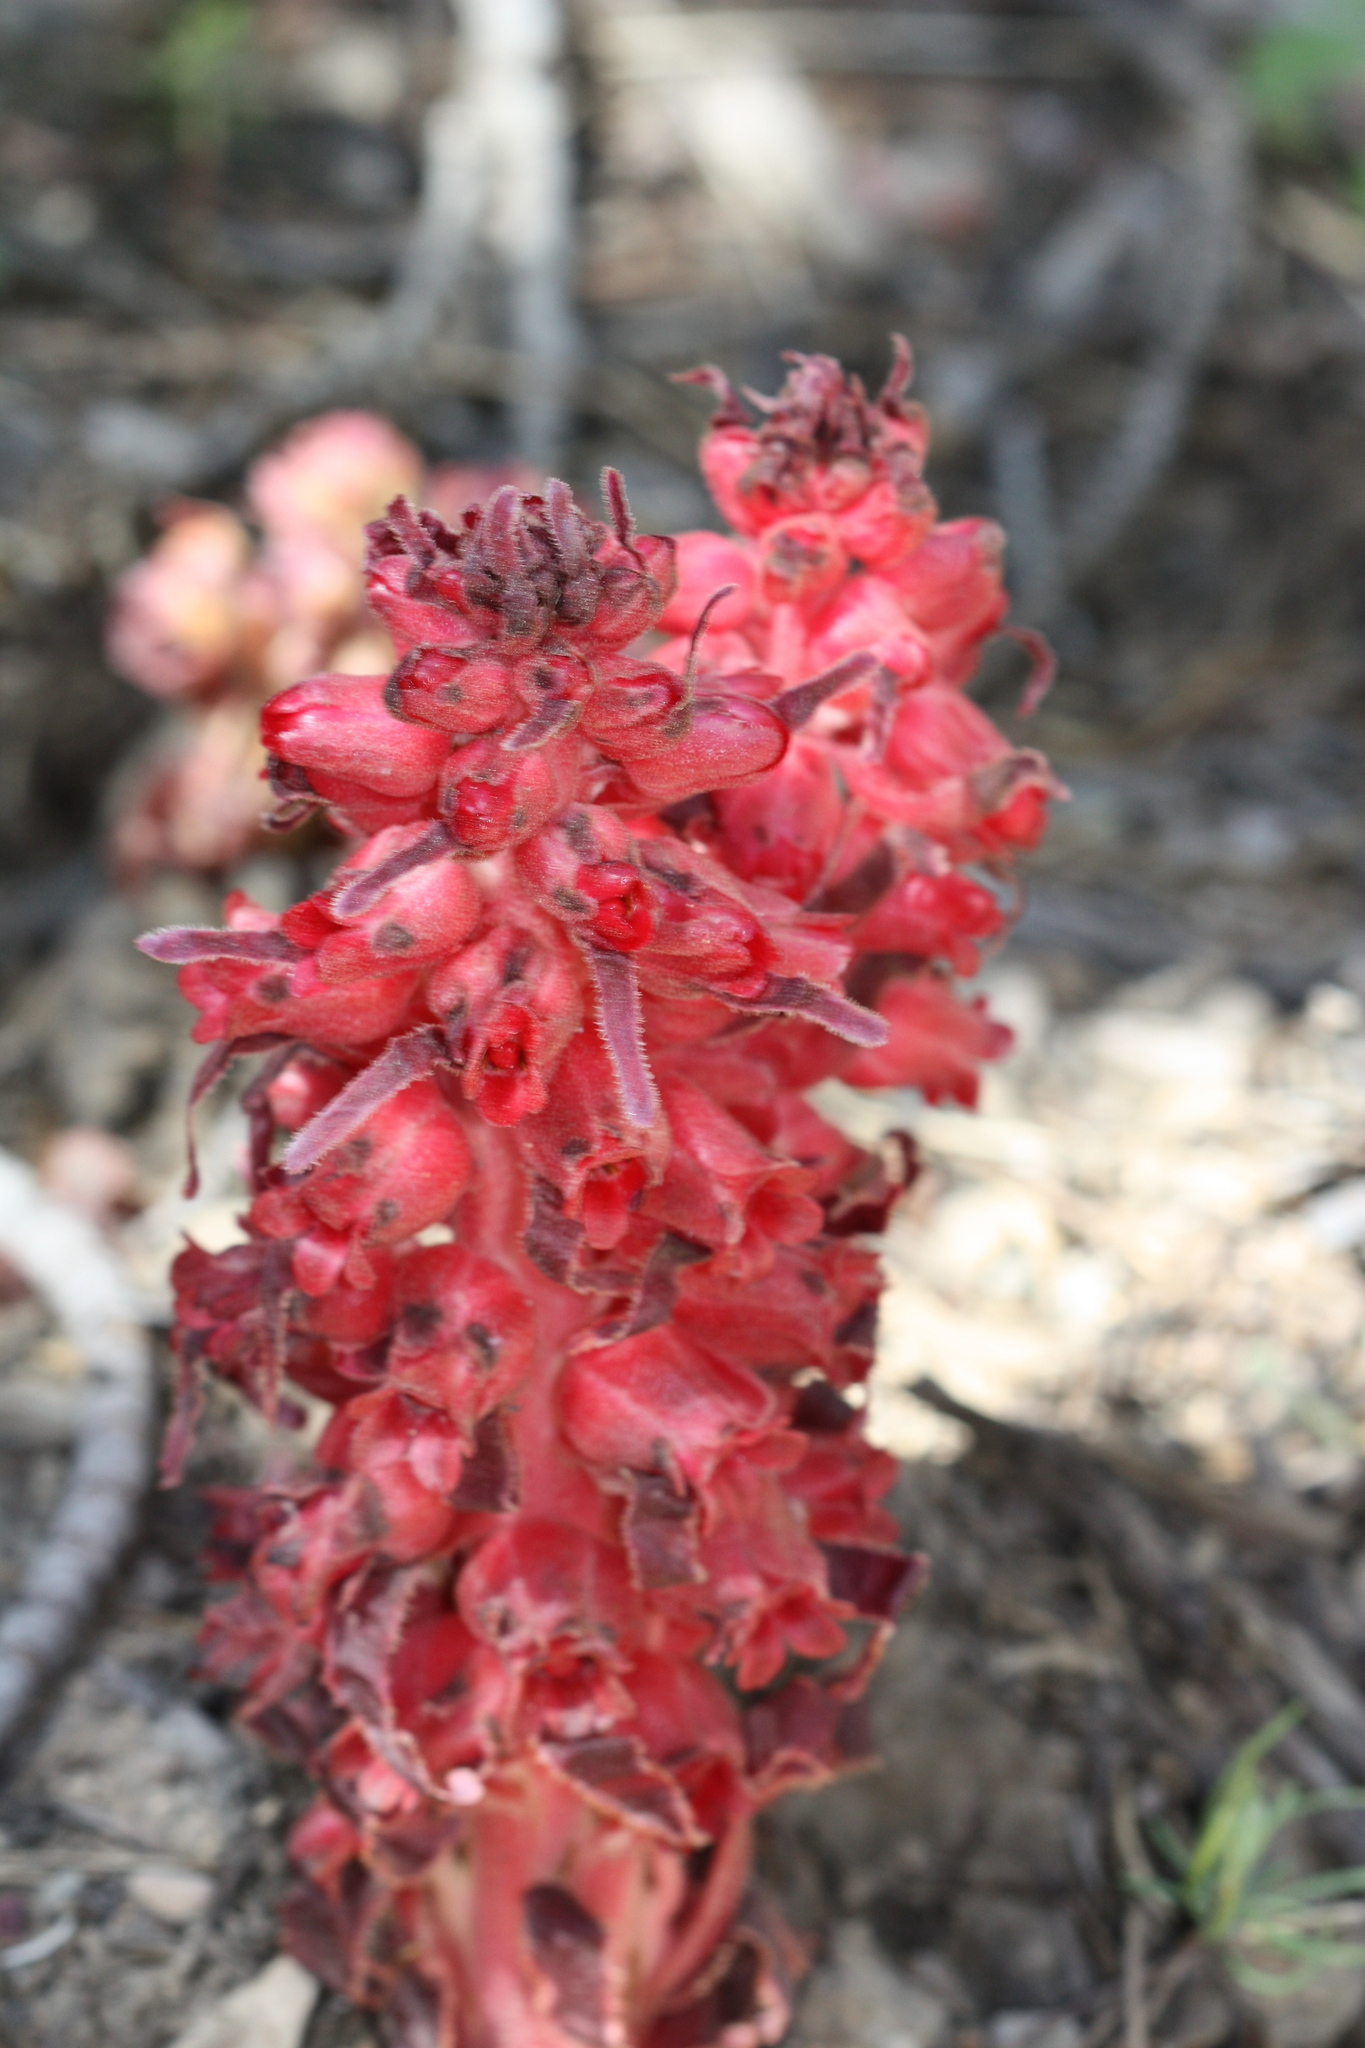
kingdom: Plantae
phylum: Tracheophyta
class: Magnoliopsida
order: Ericales
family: Ericaceae
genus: Sarcodes
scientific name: Sarcodes sanguinea
